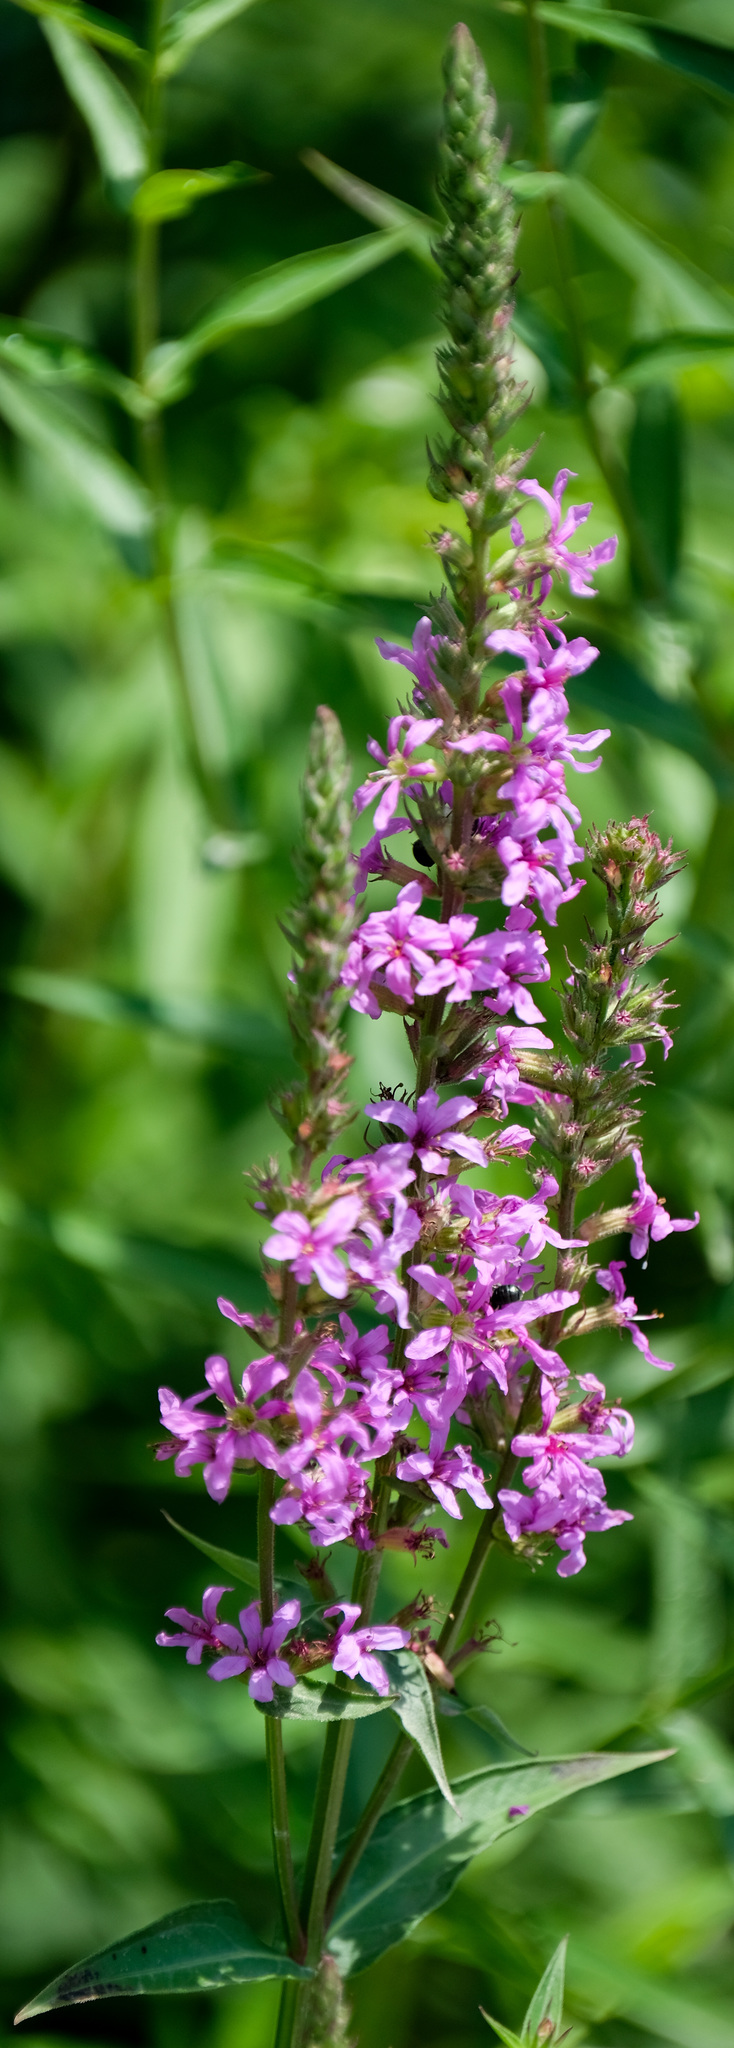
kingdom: Plantae
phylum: Tracheophyta
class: Magnoliopsida
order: Myrtales
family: Lythraceae
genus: Lythrum
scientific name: Lythrum salicaria
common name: Purple loosestrife
